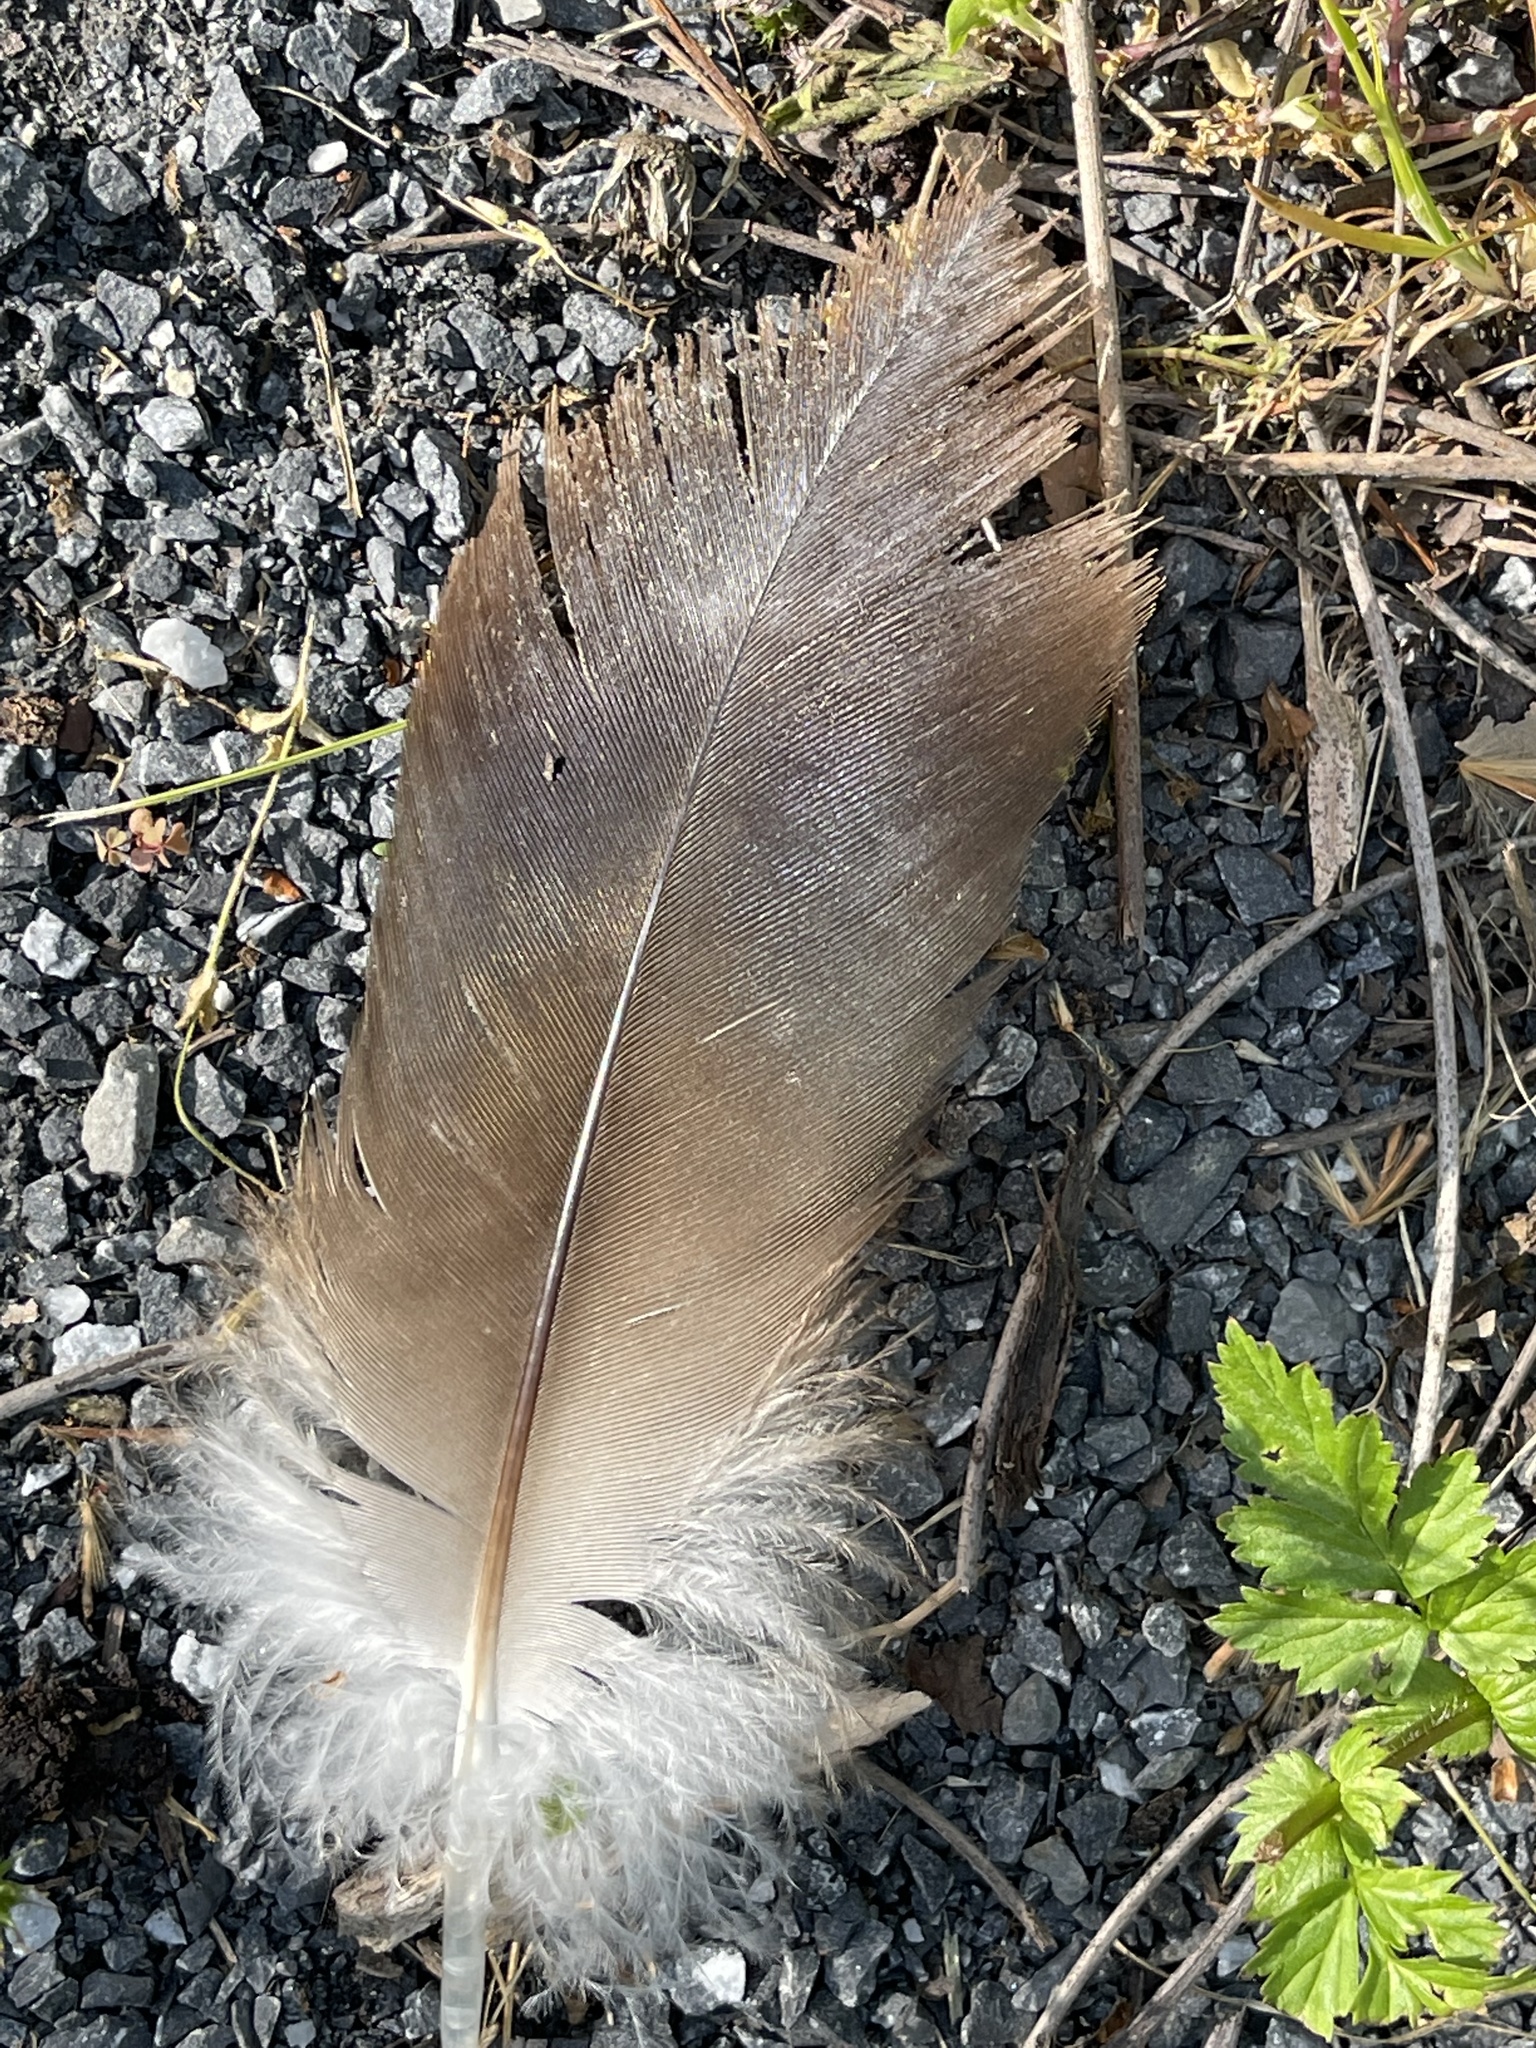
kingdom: Animalia
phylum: Chordata
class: Aves
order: Accipitriformes
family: Cathartidae
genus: Cathartes
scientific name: Cathartes aura
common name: Turkey vulture
